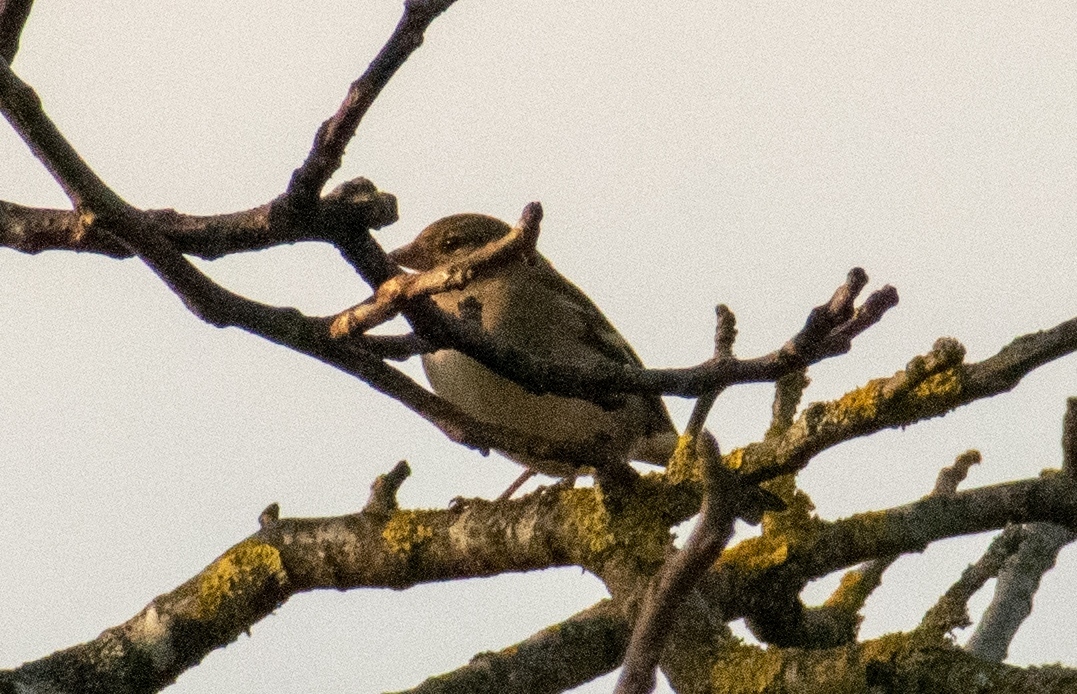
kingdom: Animalia
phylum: Chordata
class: Aves
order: Passeriformes
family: Fringillidae
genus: Fringilla
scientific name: Fringilla coelebs
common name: Common chaffinch
